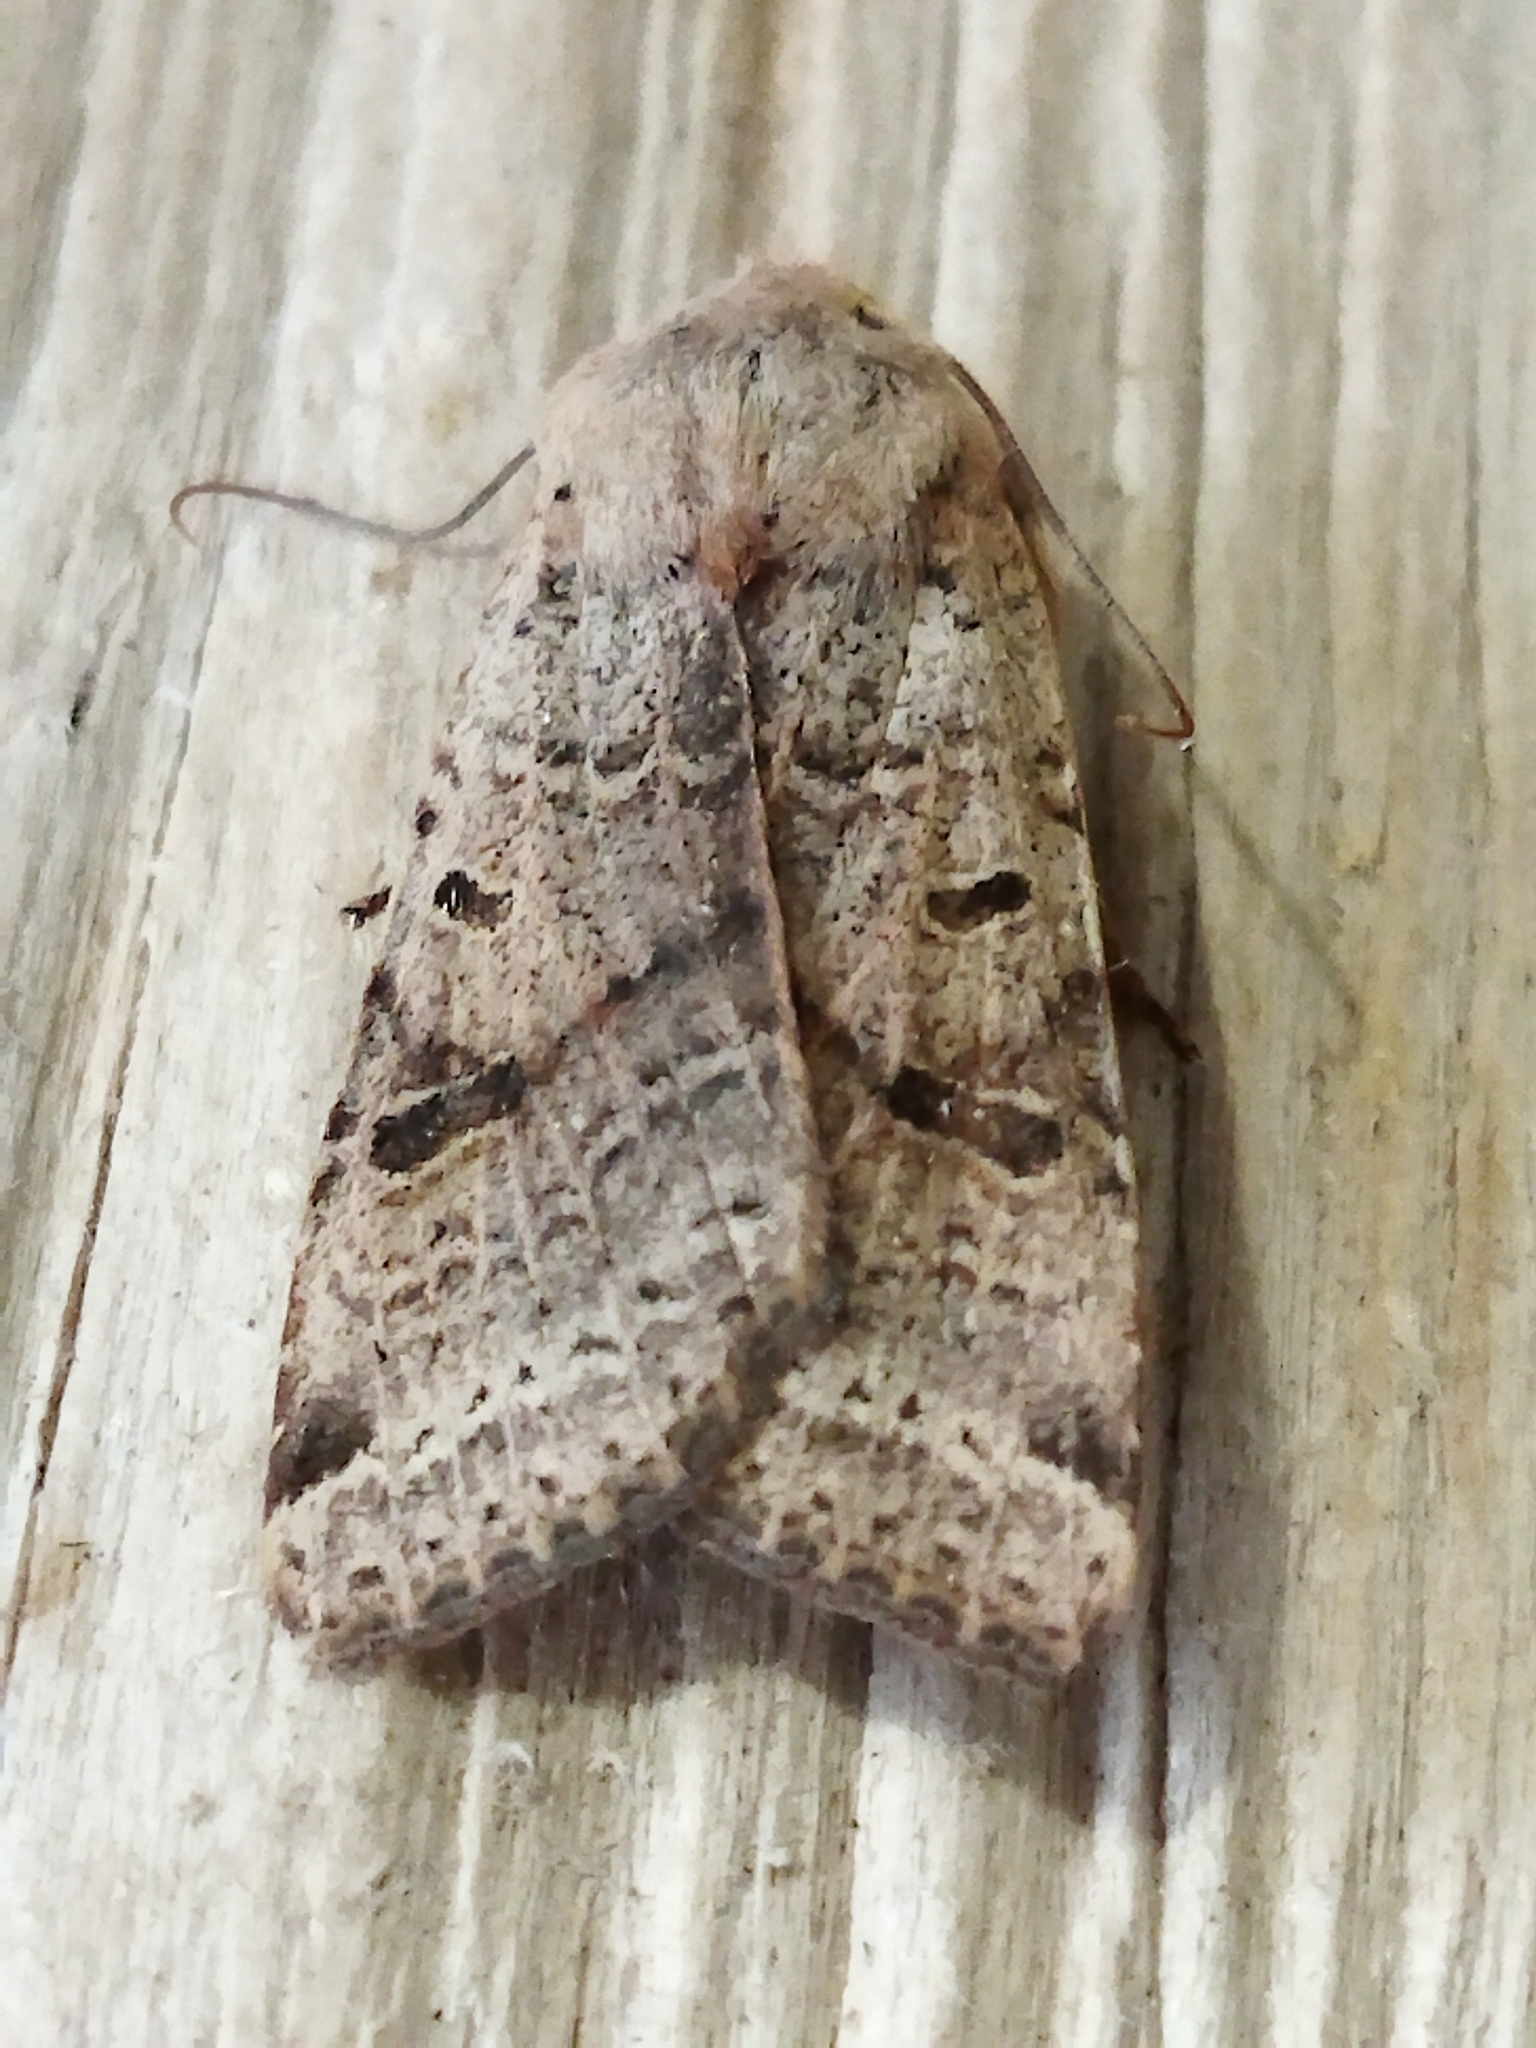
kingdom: Animalia
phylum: Arthropoda
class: Insecta
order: Lepidoptera
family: Noctuidae
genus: Agrochola
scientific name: Agrochola lychnidis
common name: Beaded chestnut
